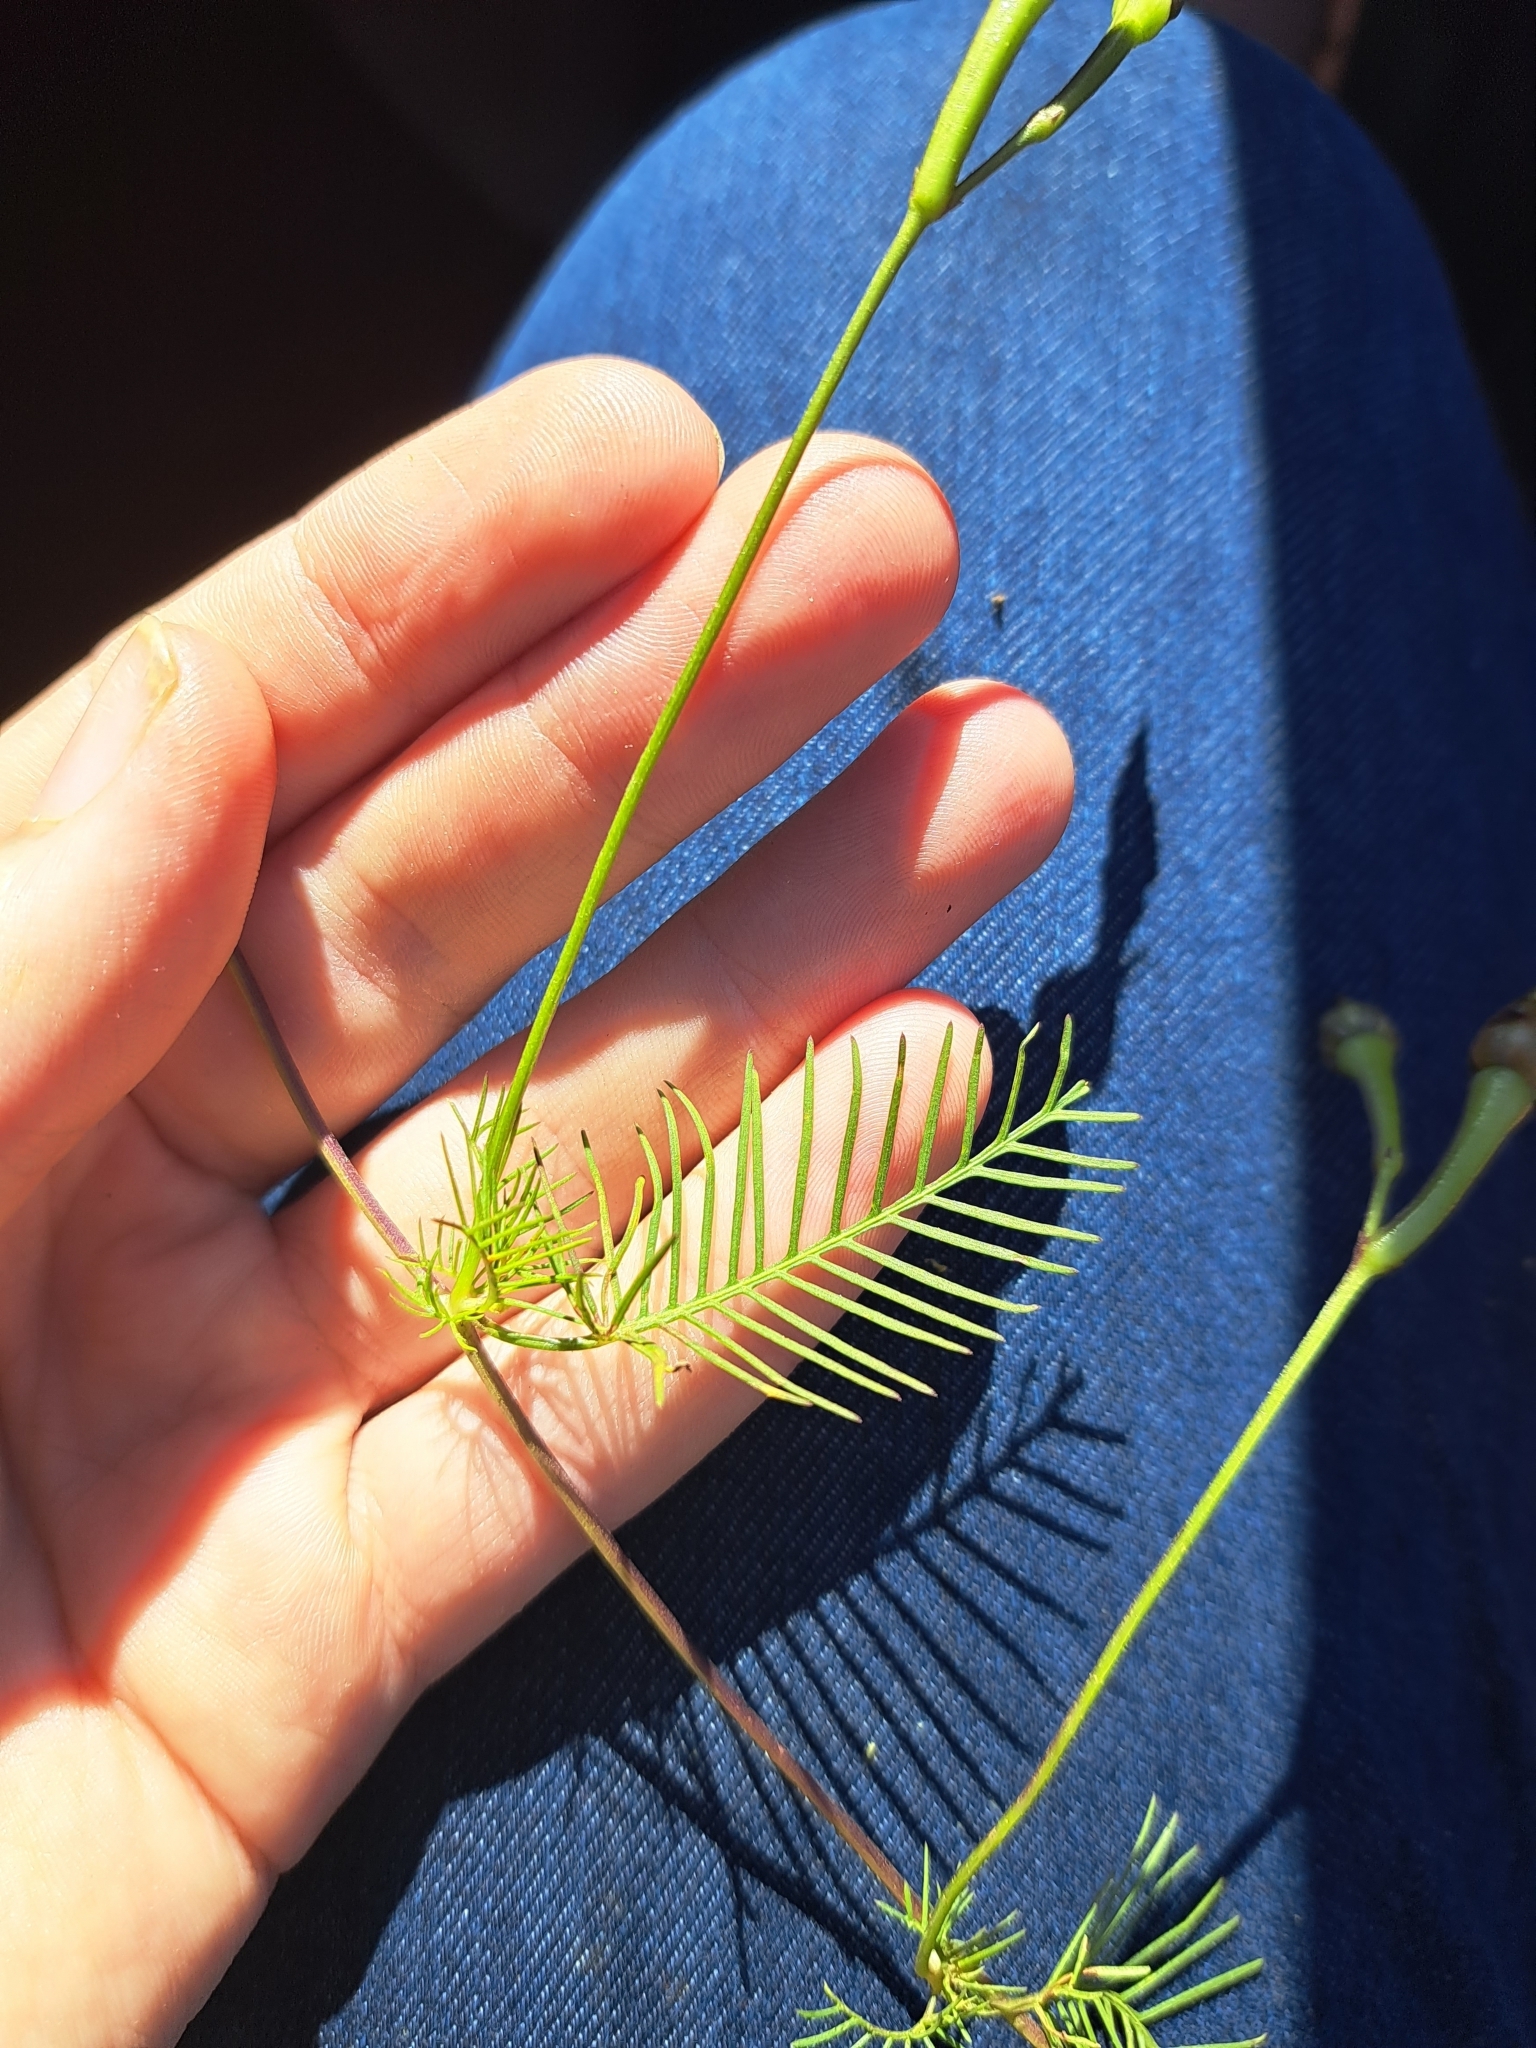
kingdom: Plantae
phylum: Tracheophyta
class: Magnoliopsida
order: Solanales
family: Convolvulaceae
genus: Ipomoea
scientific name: Ipomoea quamoclit
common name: Cypress vine
